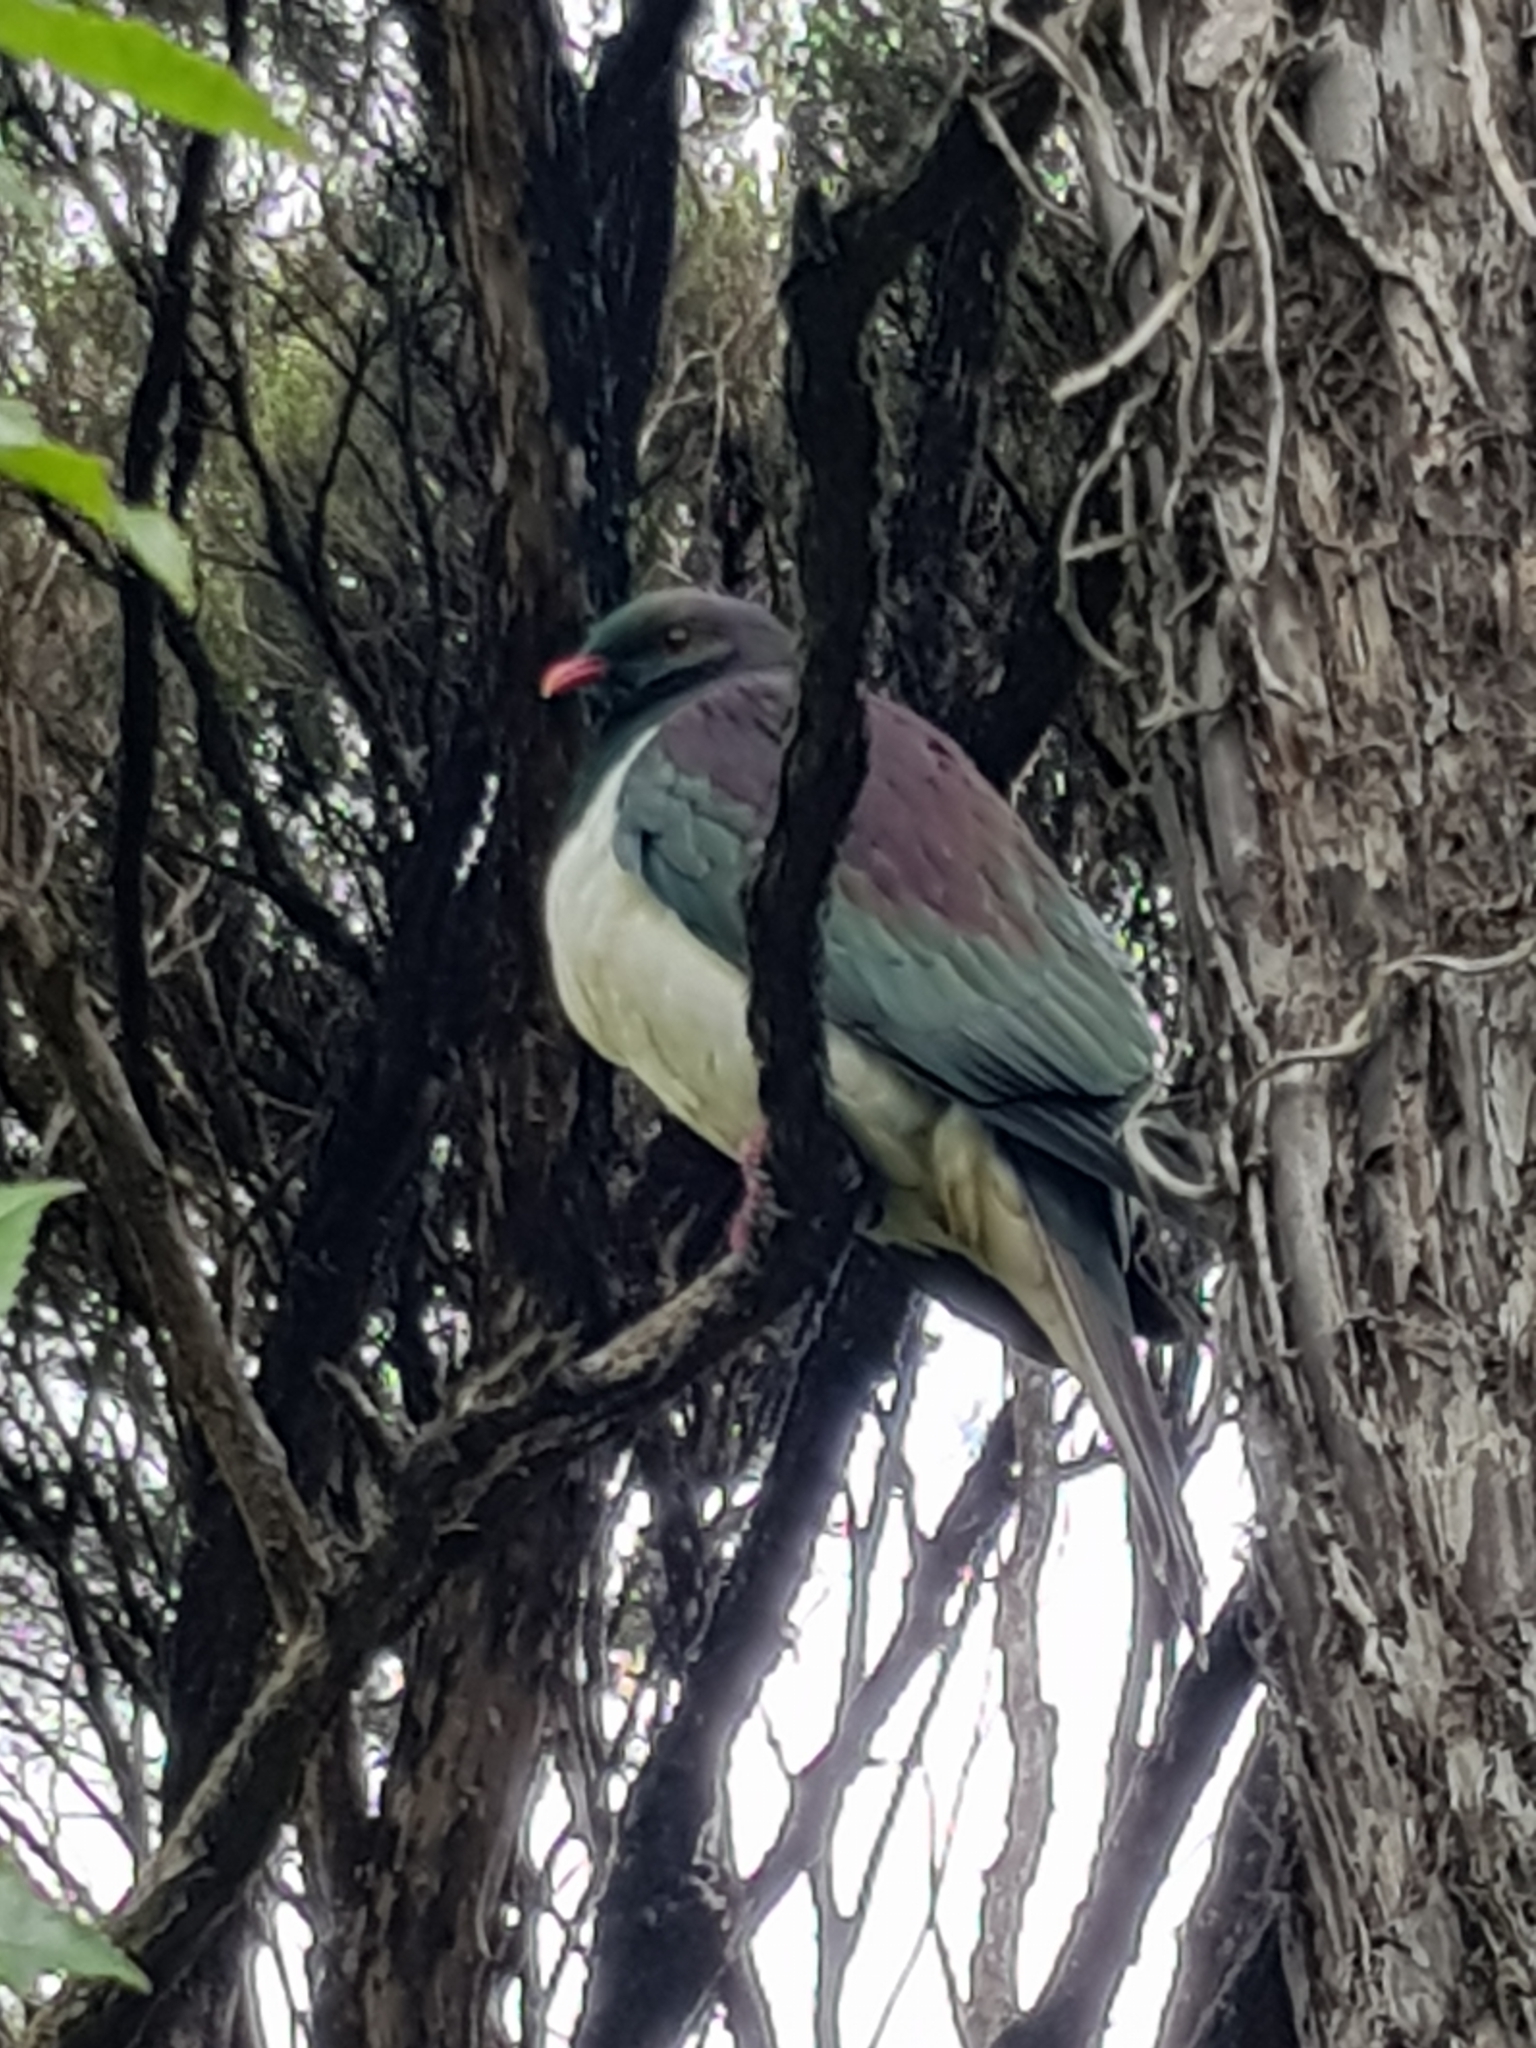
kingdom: Animalia
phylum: Chordata
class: Aves
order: Columbiformes
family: Columbidae
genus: Hemiphaga
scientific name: Hemiphaga novaeseelandiae
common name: New zealand pigeon
